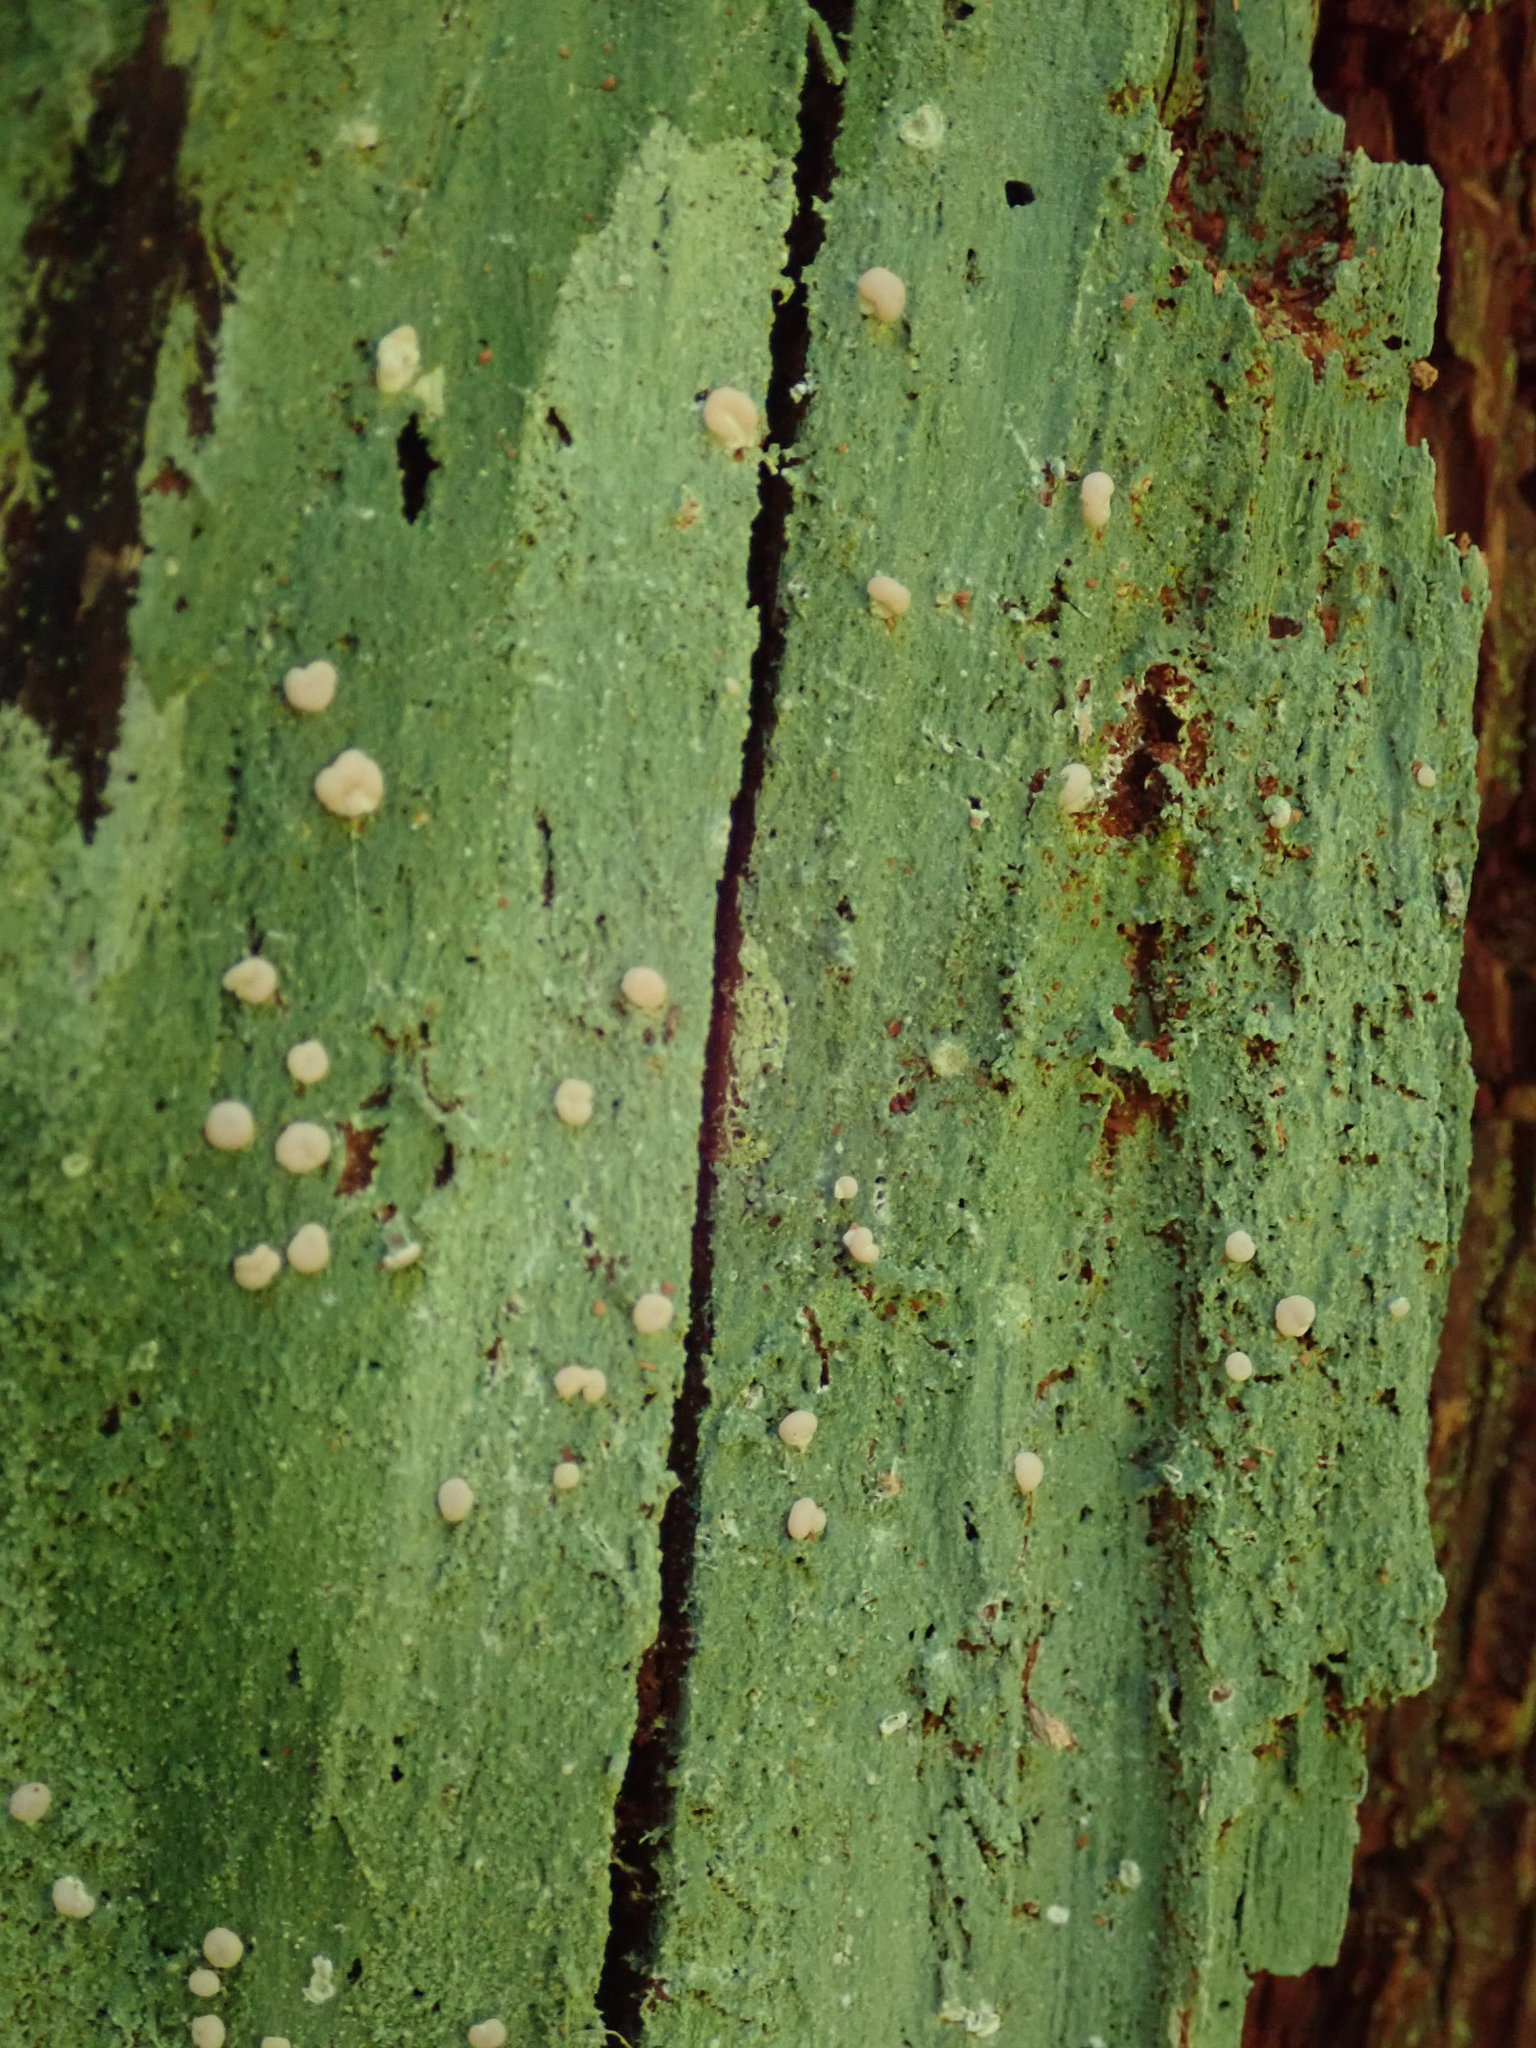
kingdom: Fungi
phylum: Ascomycota
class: Lecanoromycetes
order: Pertusariales
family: Icmadophilaceae
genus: Icmadophila
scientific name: Icmadophila ericetorum
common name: Candy lichen
